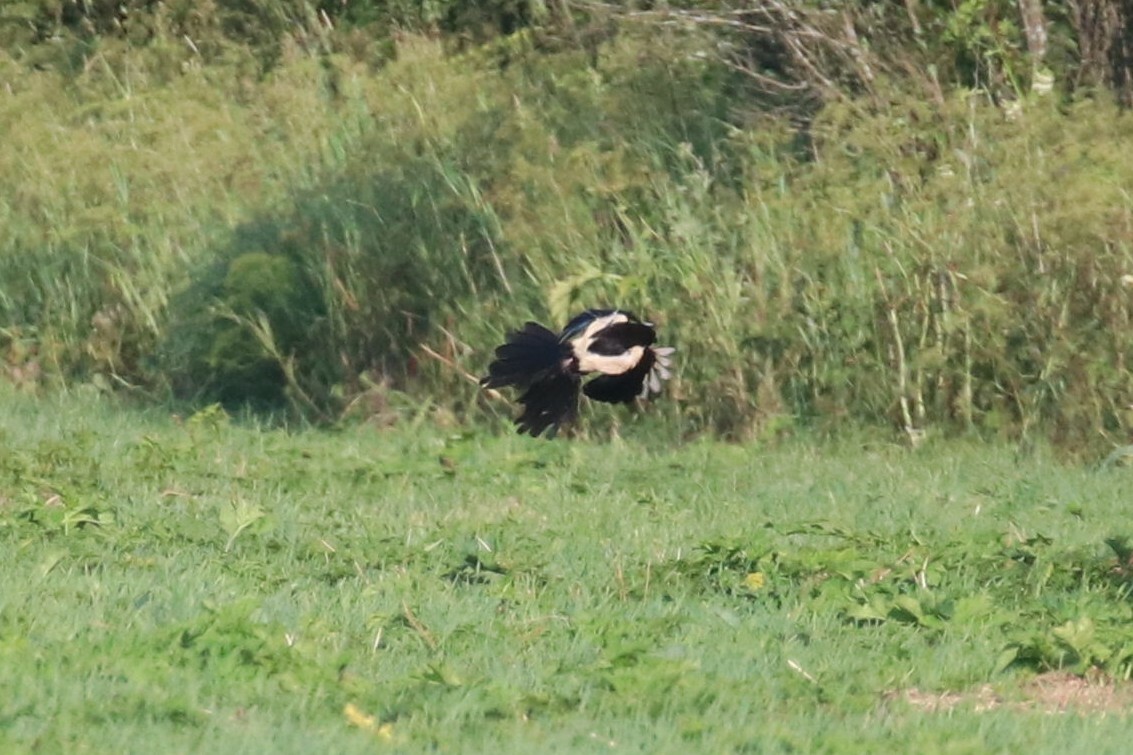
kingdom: Animalia
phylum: Chordata
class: Aves
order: Passeriformes
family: Corvidae
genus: Pica
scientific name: Pica pica
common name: Eurasian magpie
